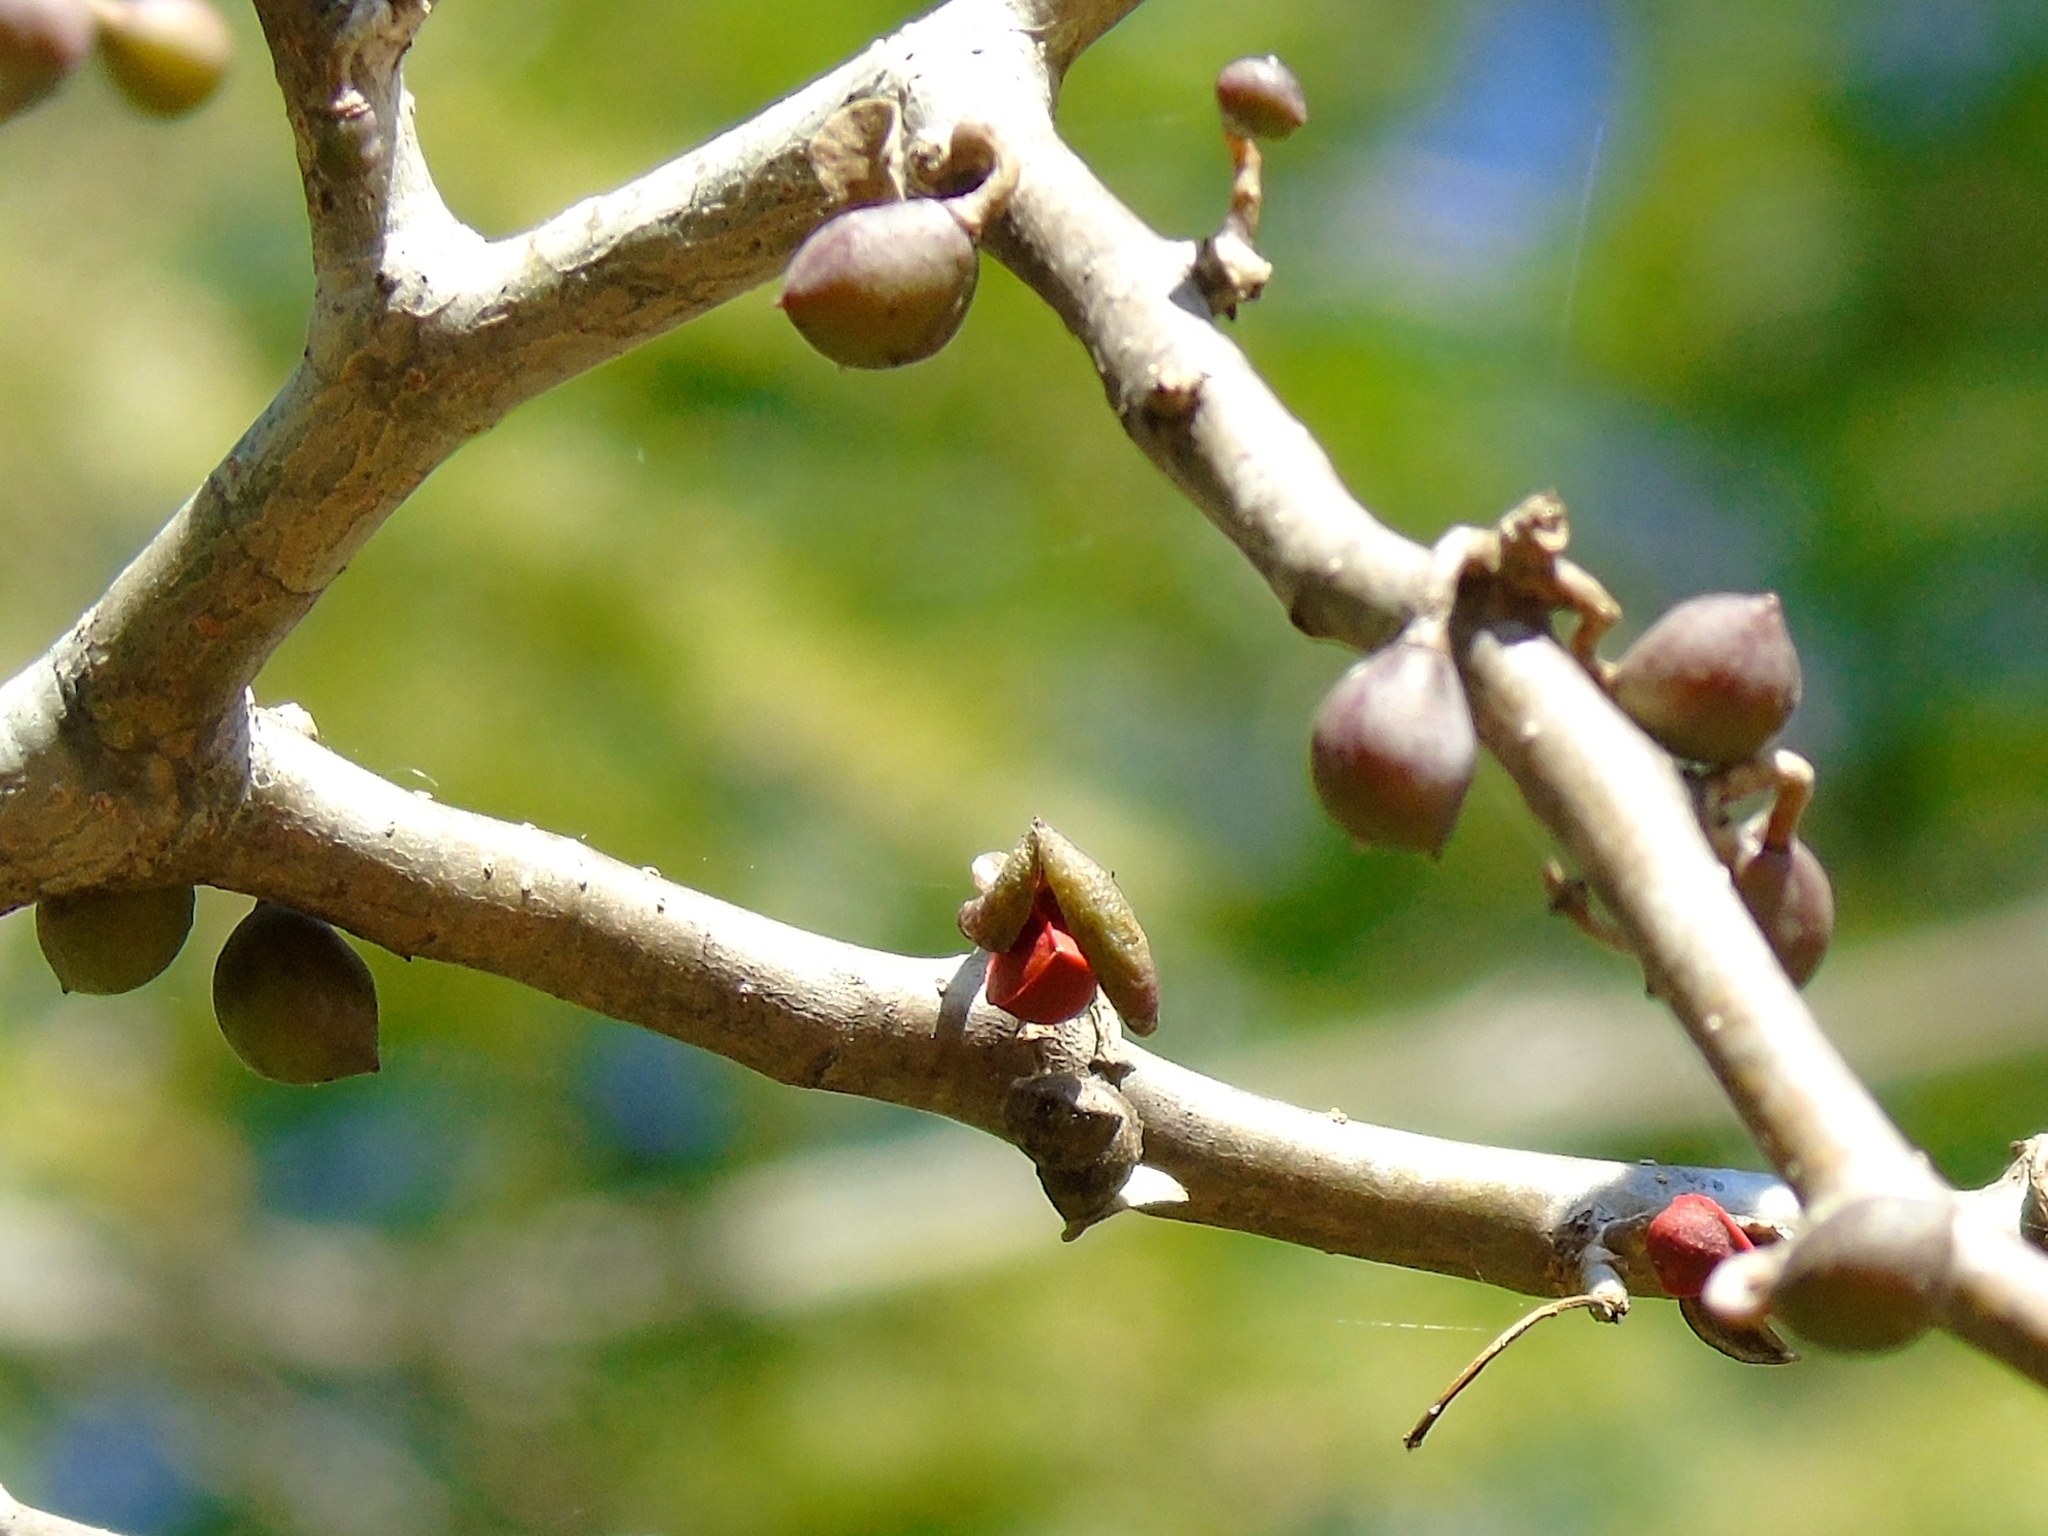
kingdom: Plantae
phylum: Tracheophyta
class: Magnoliopsida
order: Sapindales
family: Burseraceae
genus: Bursera
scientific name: Bursera
